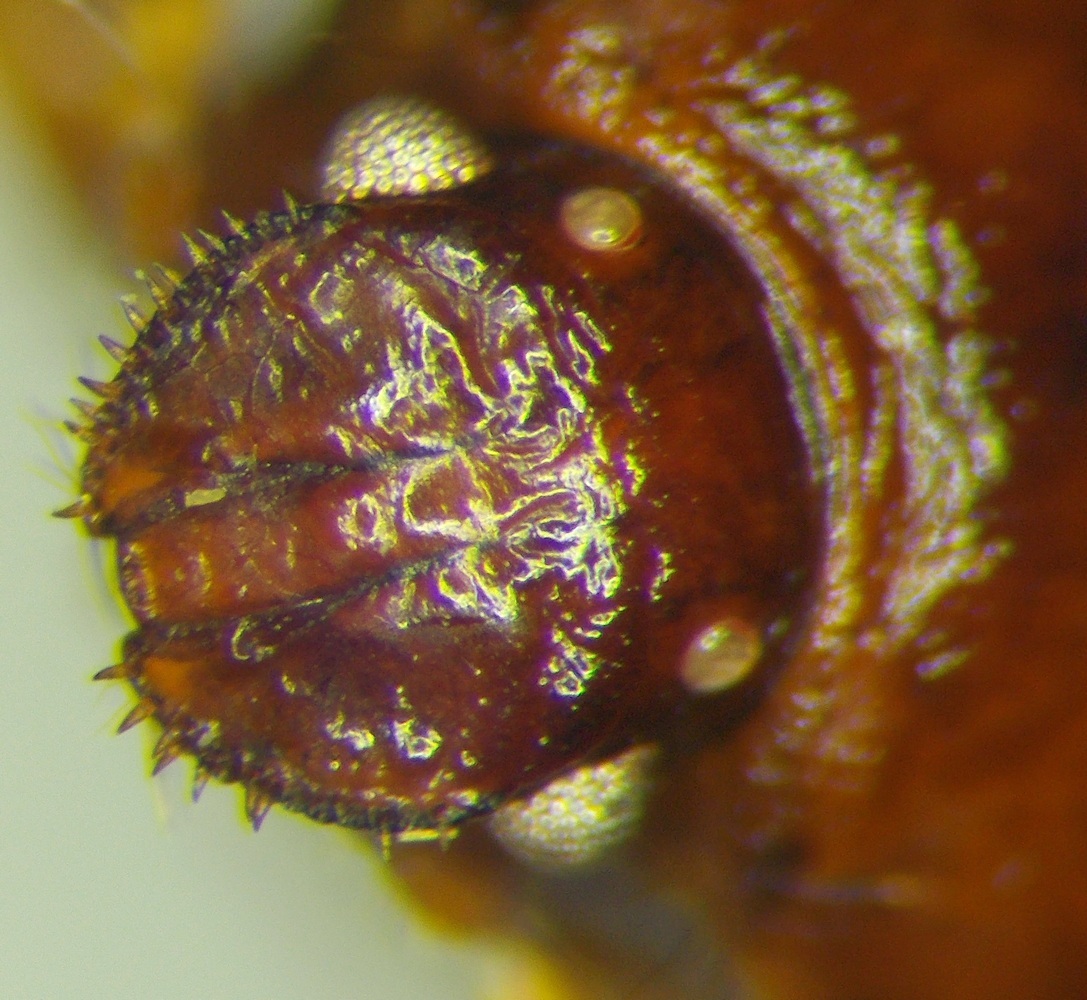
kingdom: Animalia
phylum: Arthropoda
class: Insecta
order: Hemiptera
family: Cydnidae
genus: Stibaropus
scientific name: Stibaropus henkei
